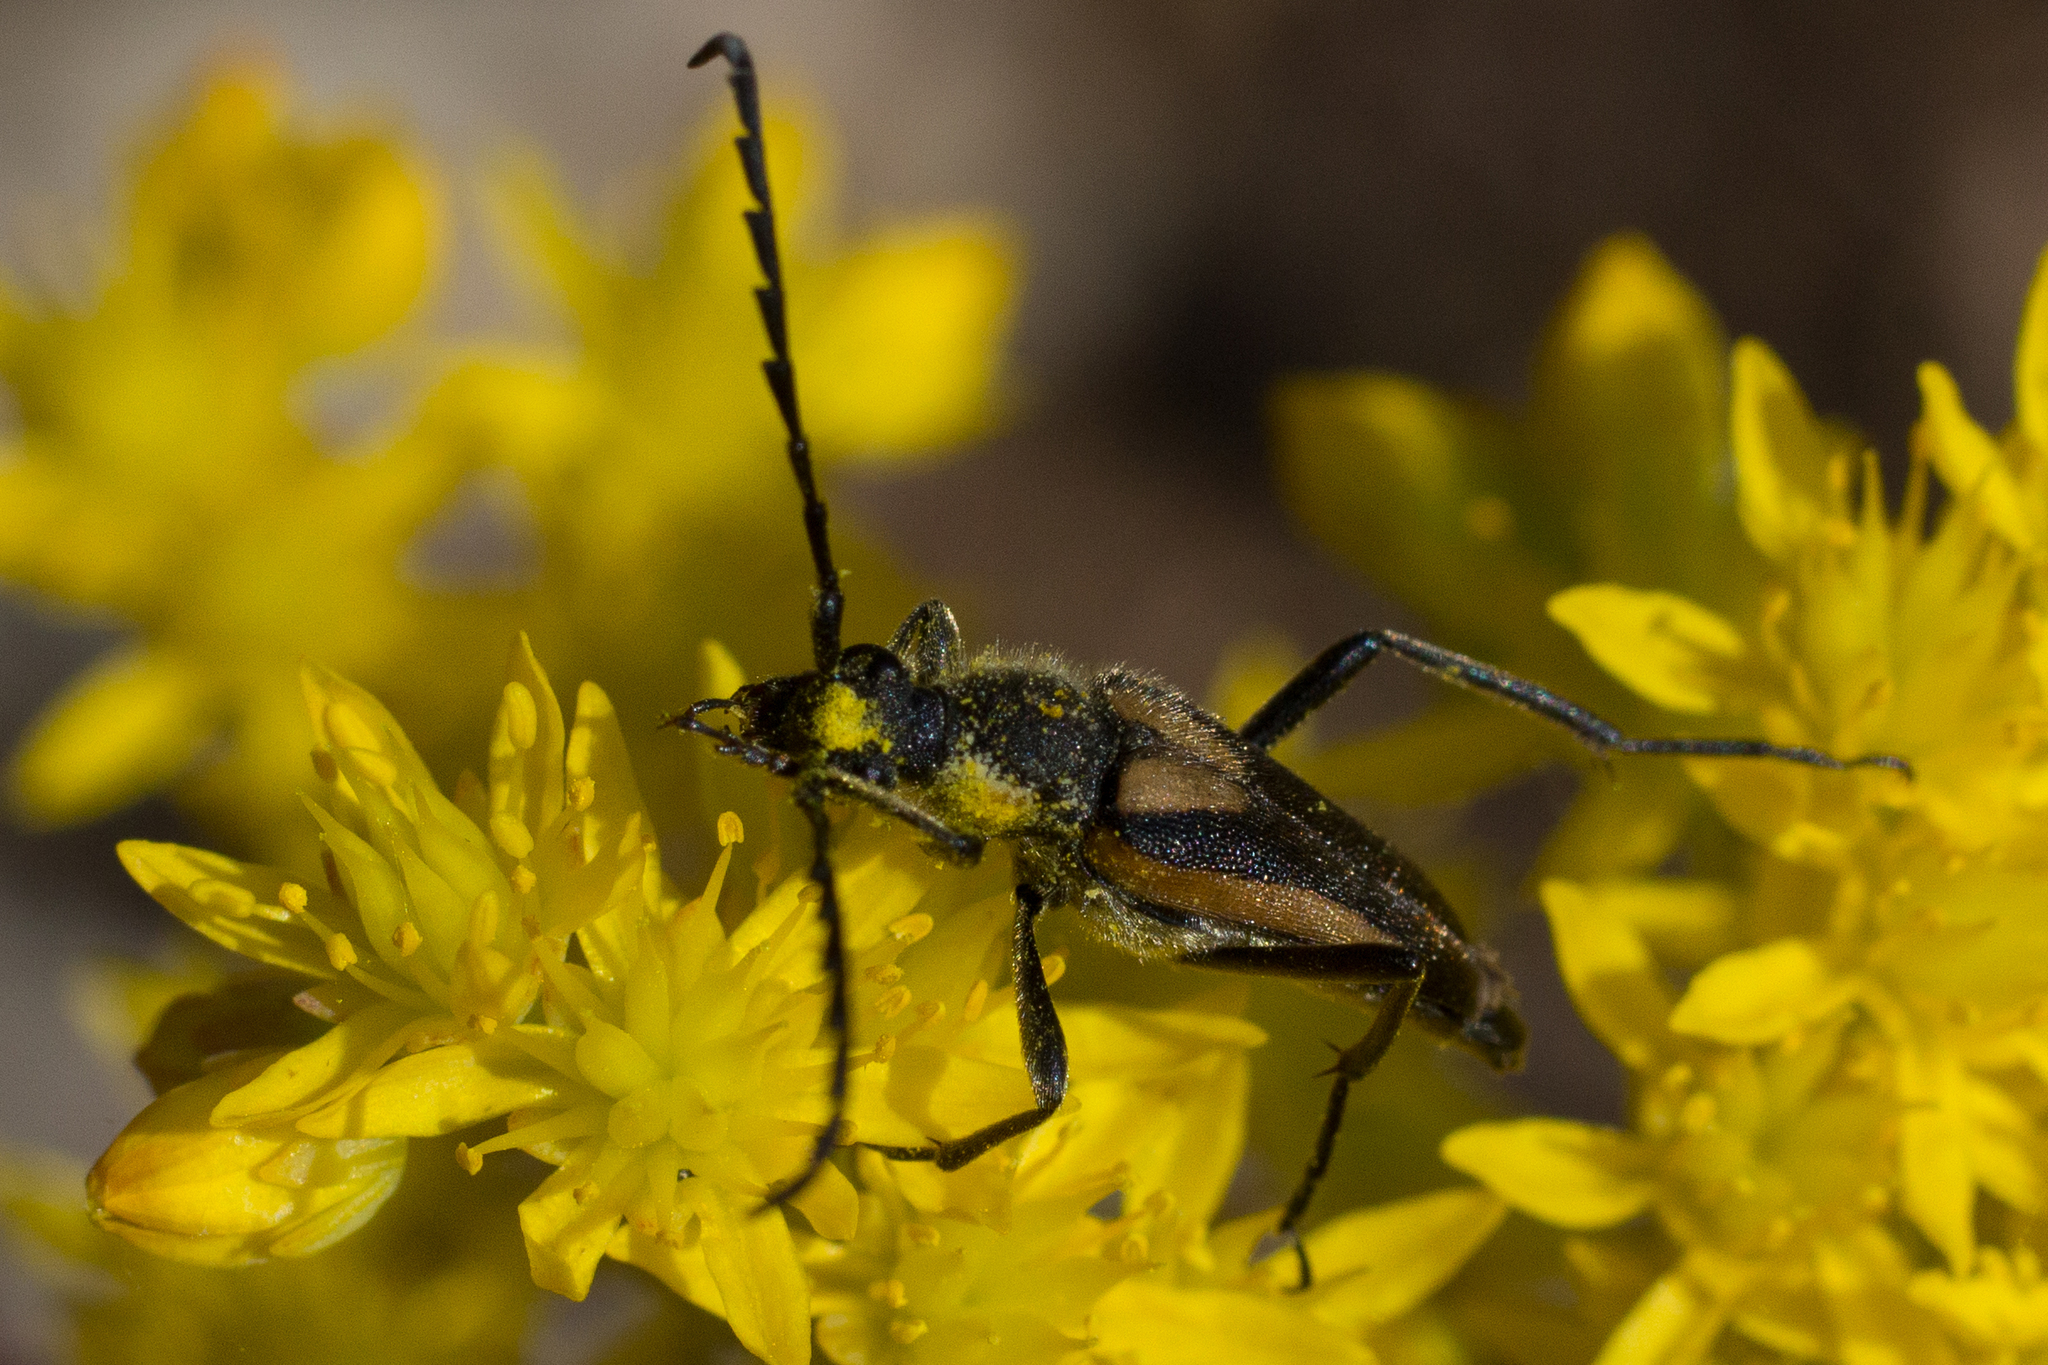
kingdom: Animalia
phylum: Arthropoda
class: Insecta
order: Coleoptera
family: Cerambycidae
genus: Stictoleptura
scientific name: Stictoleptura stragulata
